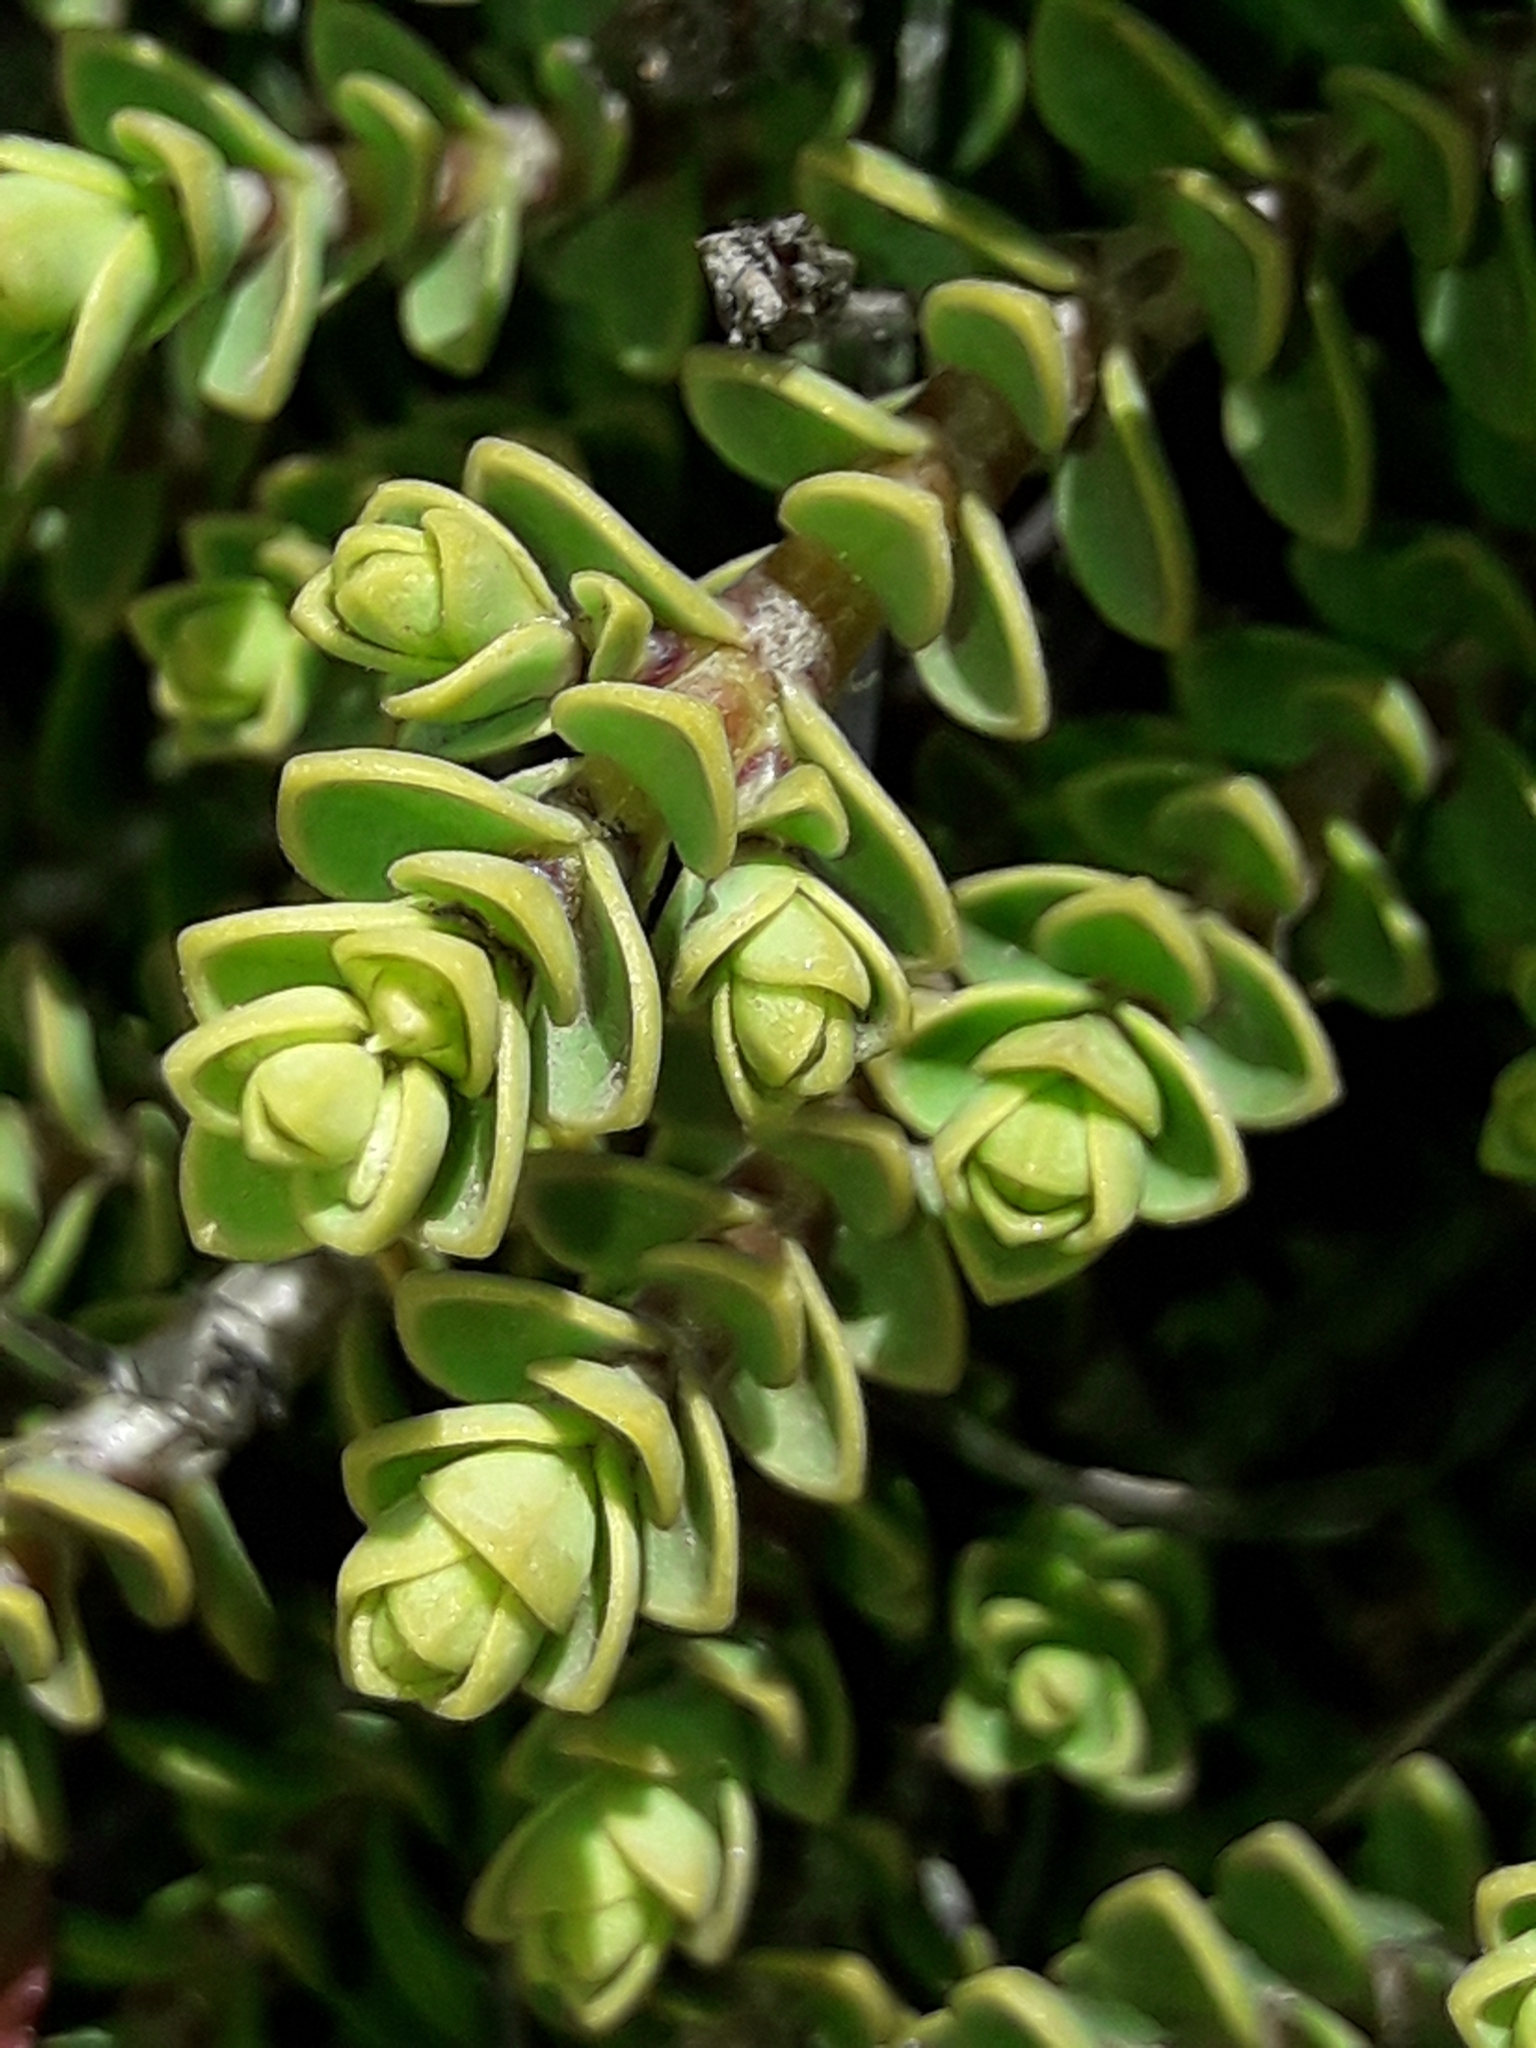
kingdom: Plantae
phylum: Tracheophyta
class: Magnoliopsida
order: Lamiales
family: Plantaginaceae
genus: Veronica
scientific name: Veronica buchananii
